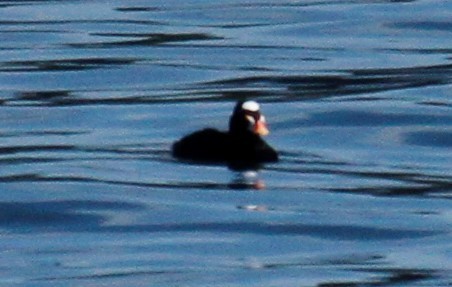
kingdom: Animalia
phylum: Chordata
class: Aves
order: Anseriformes
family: Anatidae
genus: Melanitta
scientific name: Melanitta perspicillata
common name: Surf scoter
